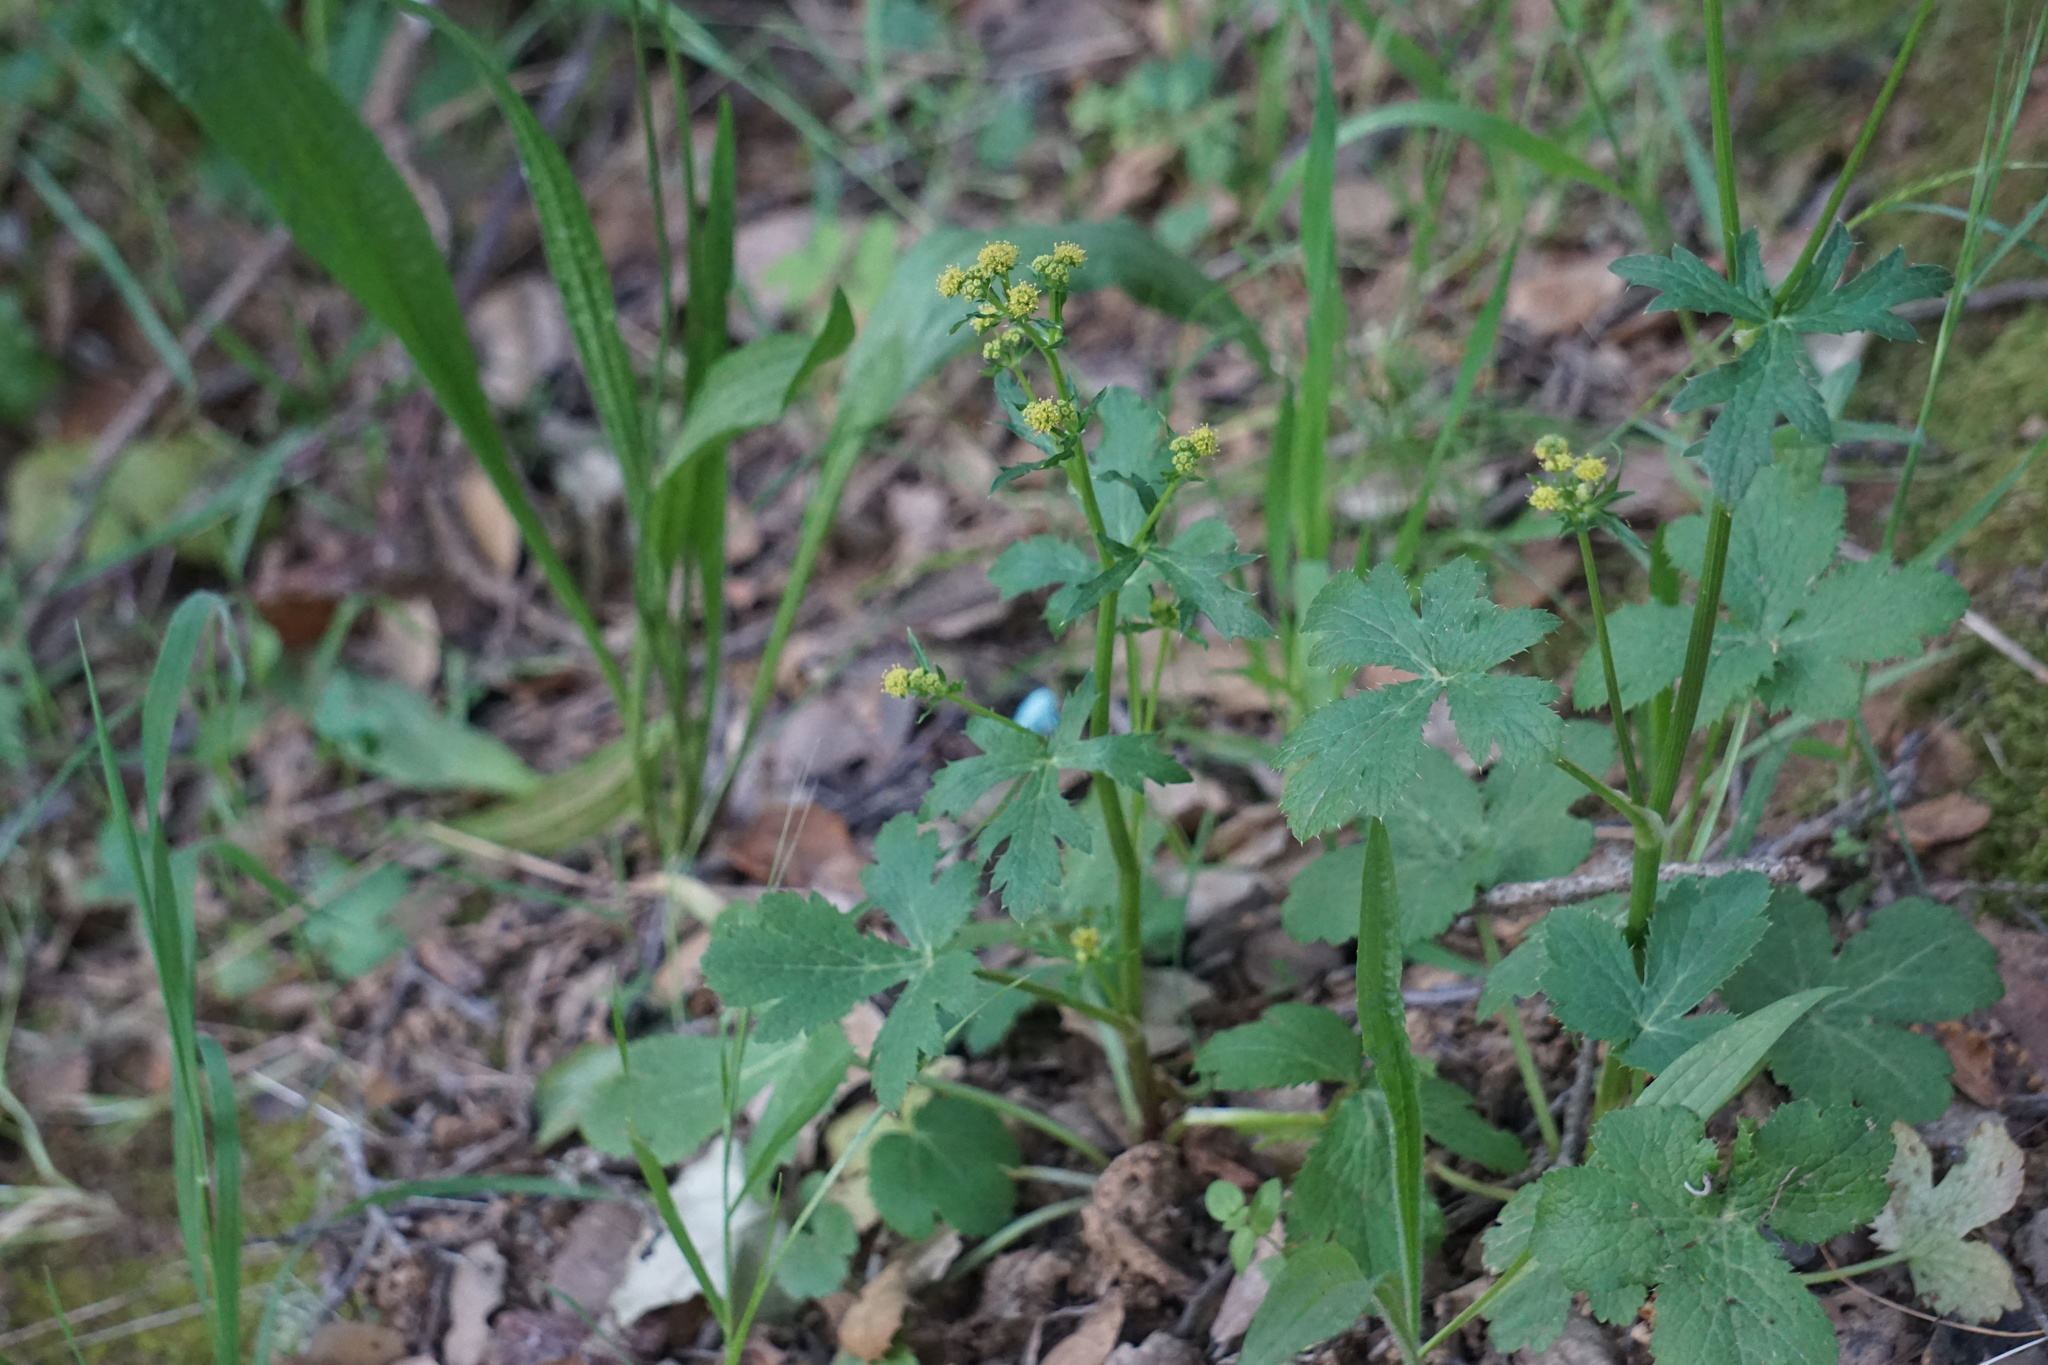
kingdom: Plantae
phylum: Tracheophyta
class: Magnoliopsida
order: Apiales
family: Apiaceae
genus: Sanicula
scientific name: Sanicula crassicaulis
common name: Western snakeroot
